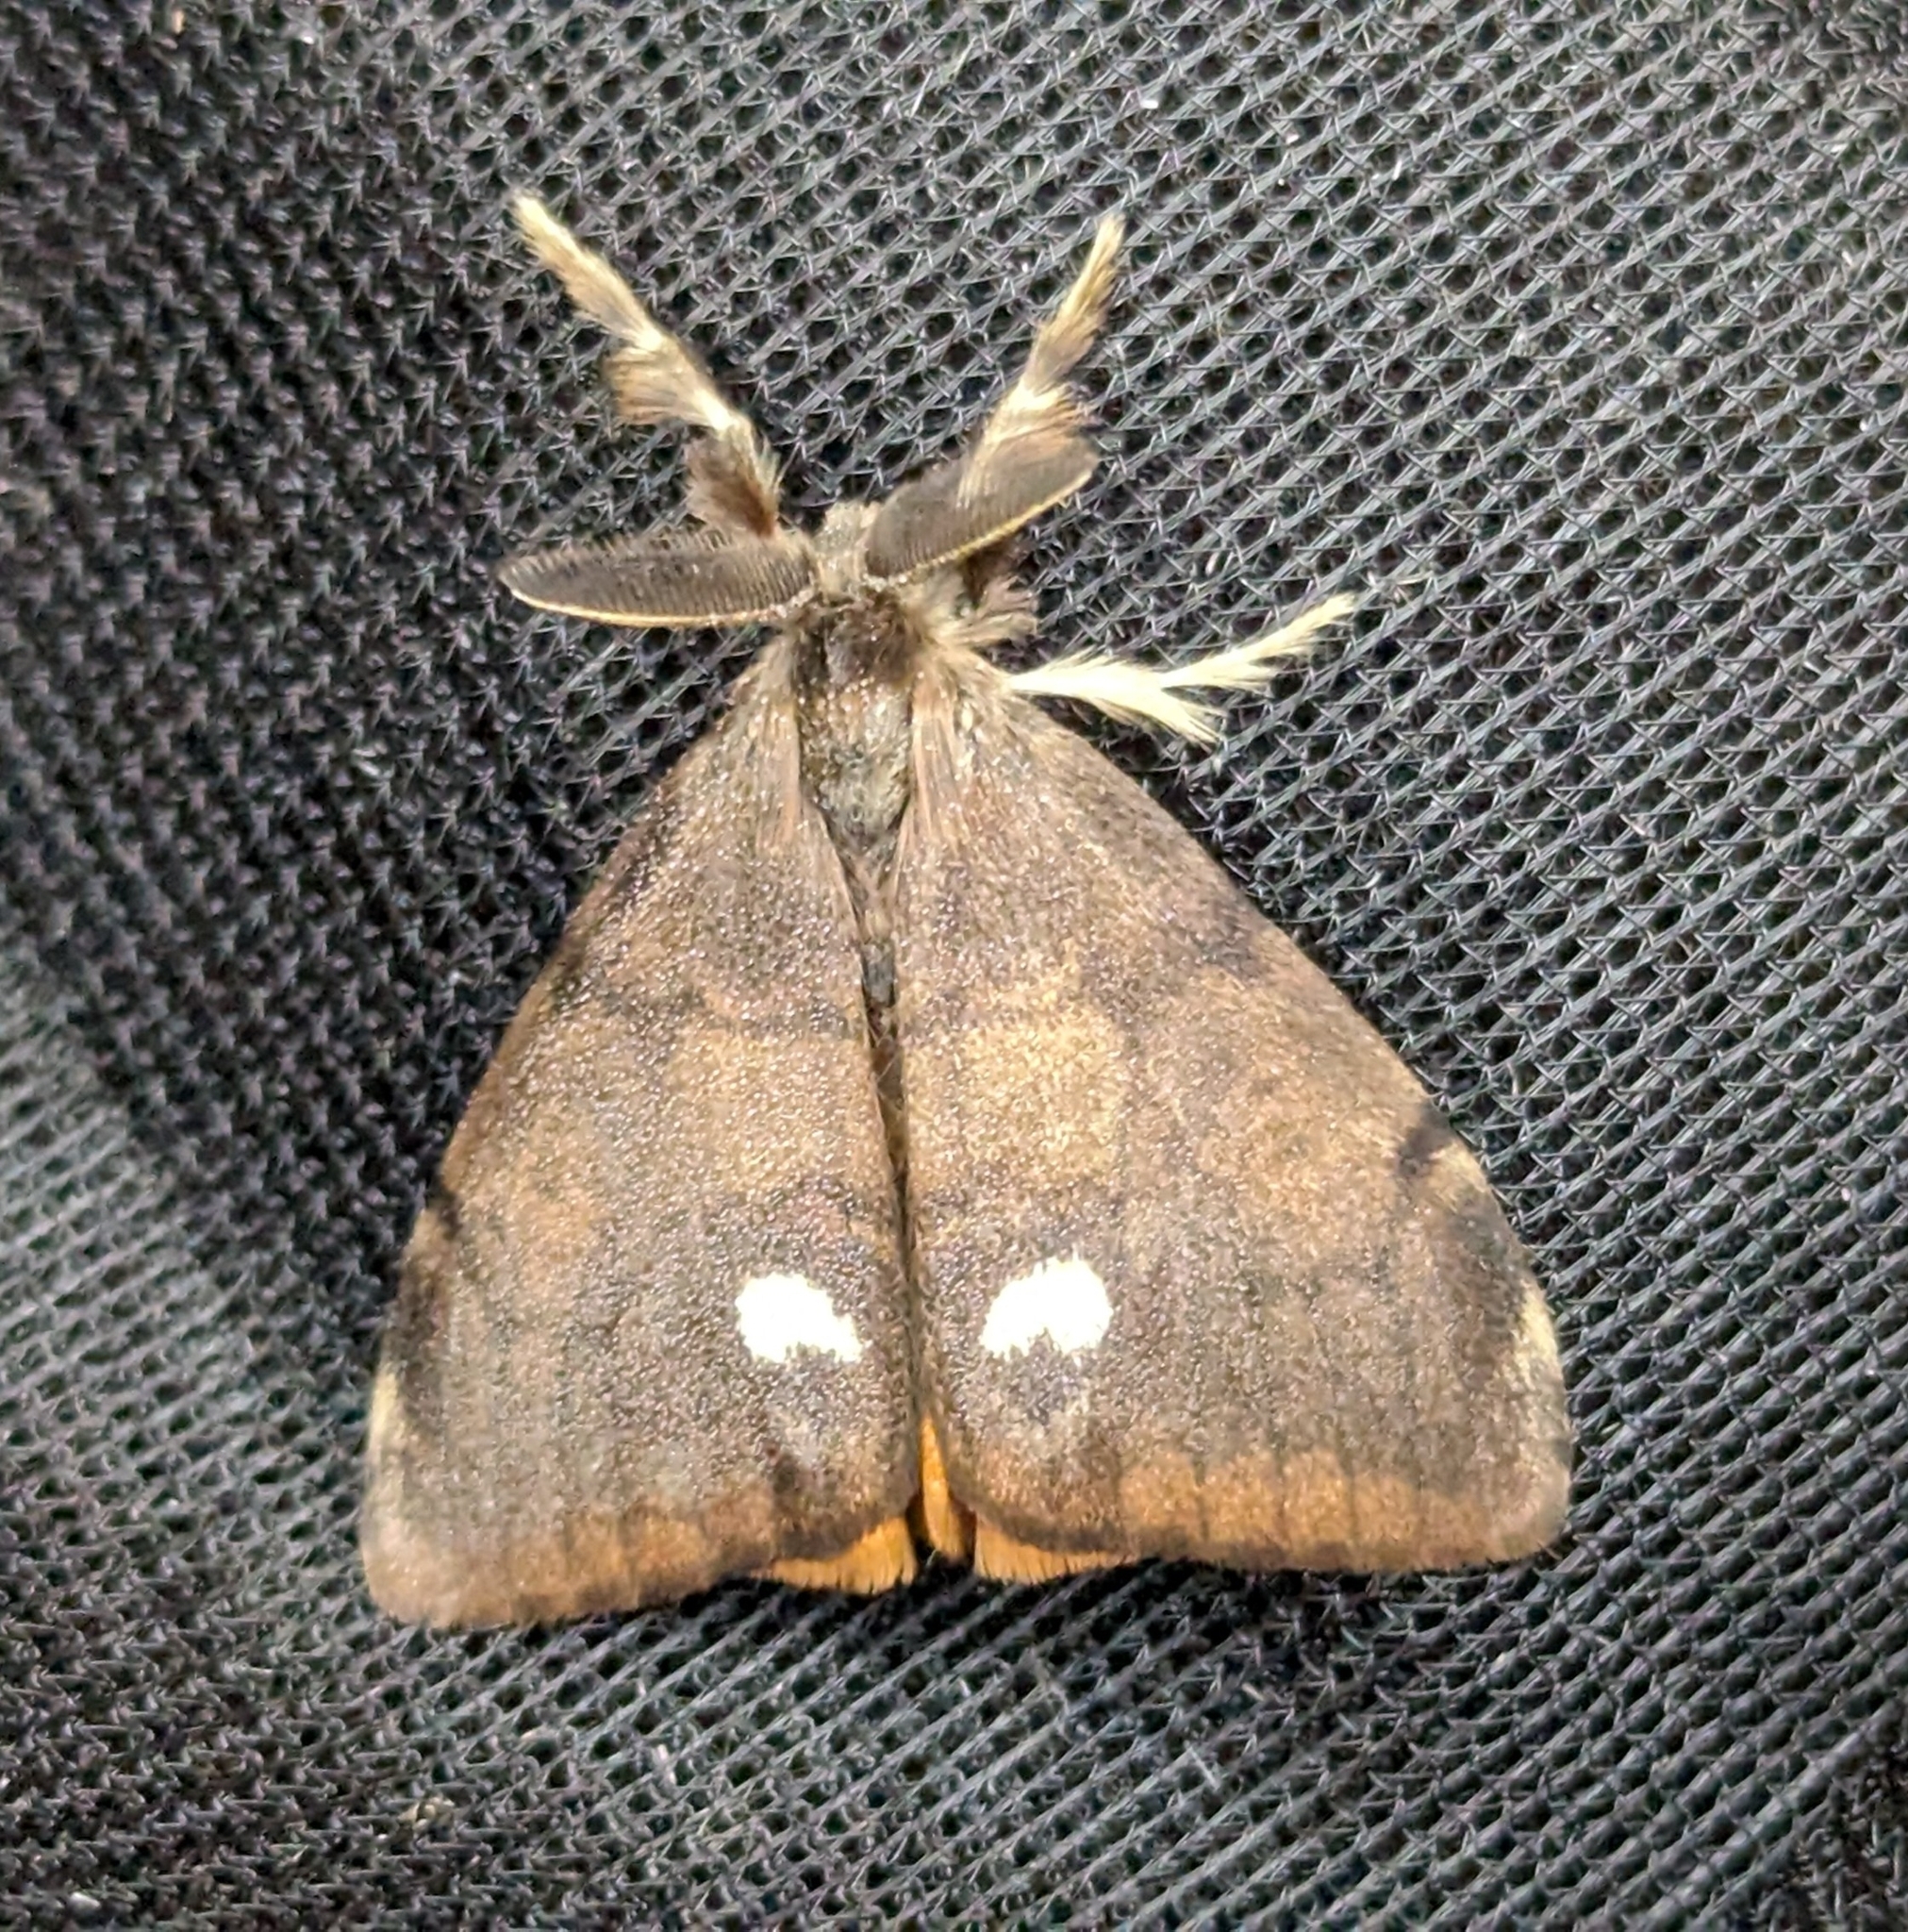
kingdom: Animalia
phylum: Arthropoda
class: Insecta
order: Lepidoptera
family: Erebidae
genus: Orgyia
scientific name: Orgyia antiqua
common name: Vapourer
